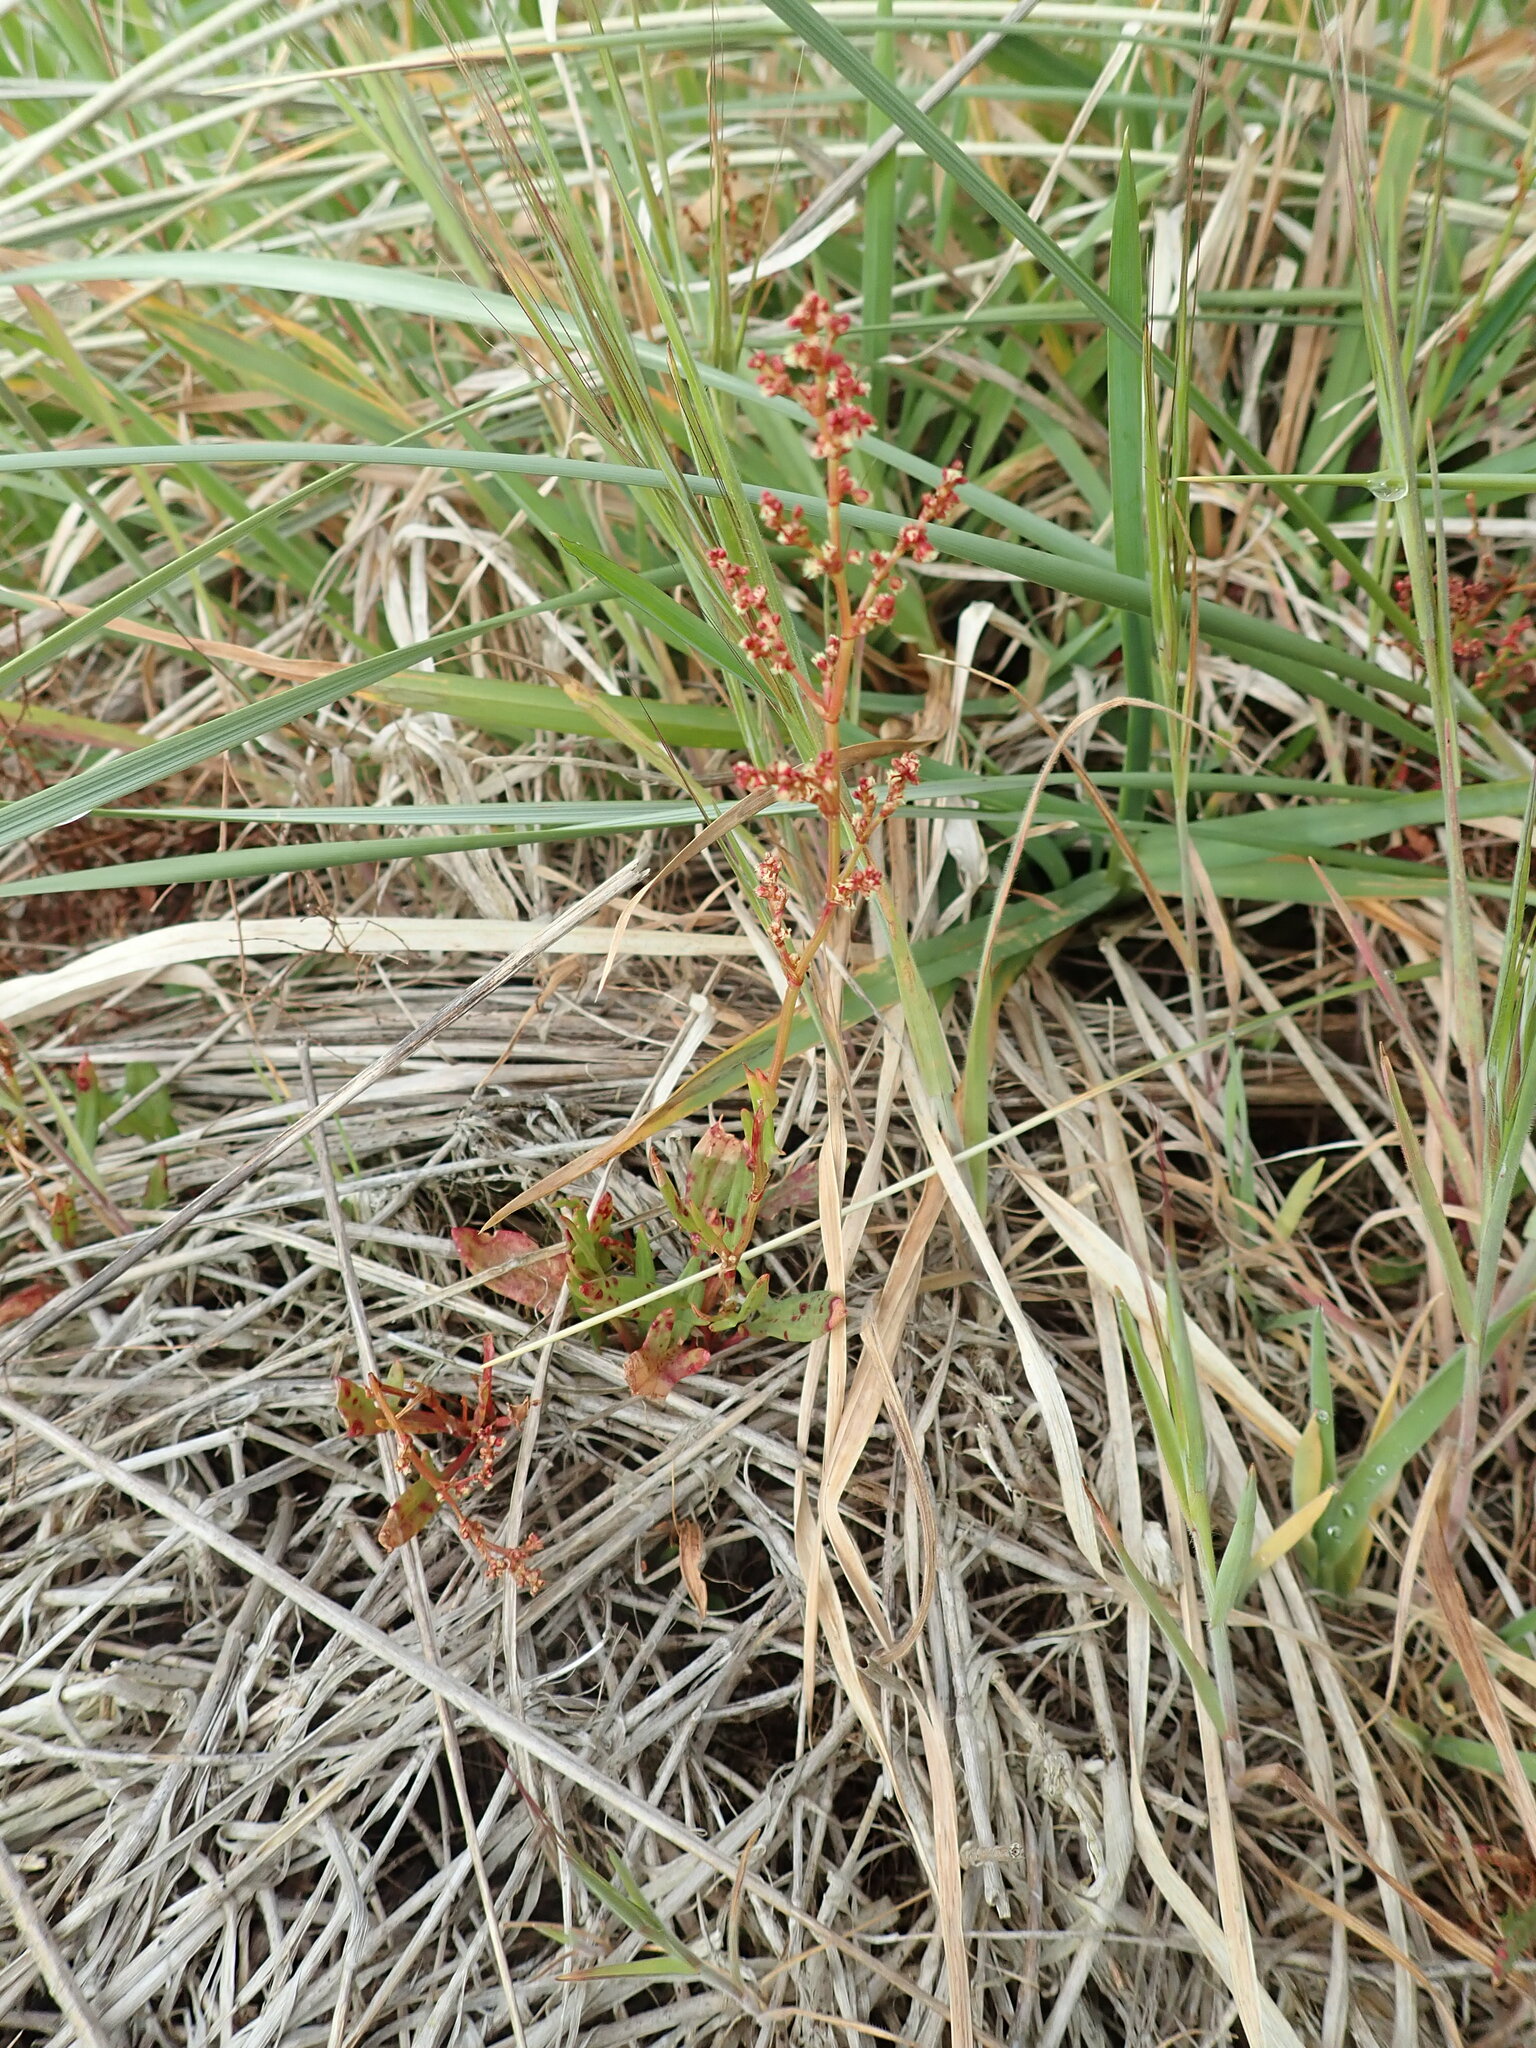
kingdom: Plantae
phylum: Tracheophyta
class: Magnoliopsida
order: Caryophyllales
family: Polygonaceae
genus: Rumex
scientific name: Rumex acetosella
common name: Common sheep sorrel
